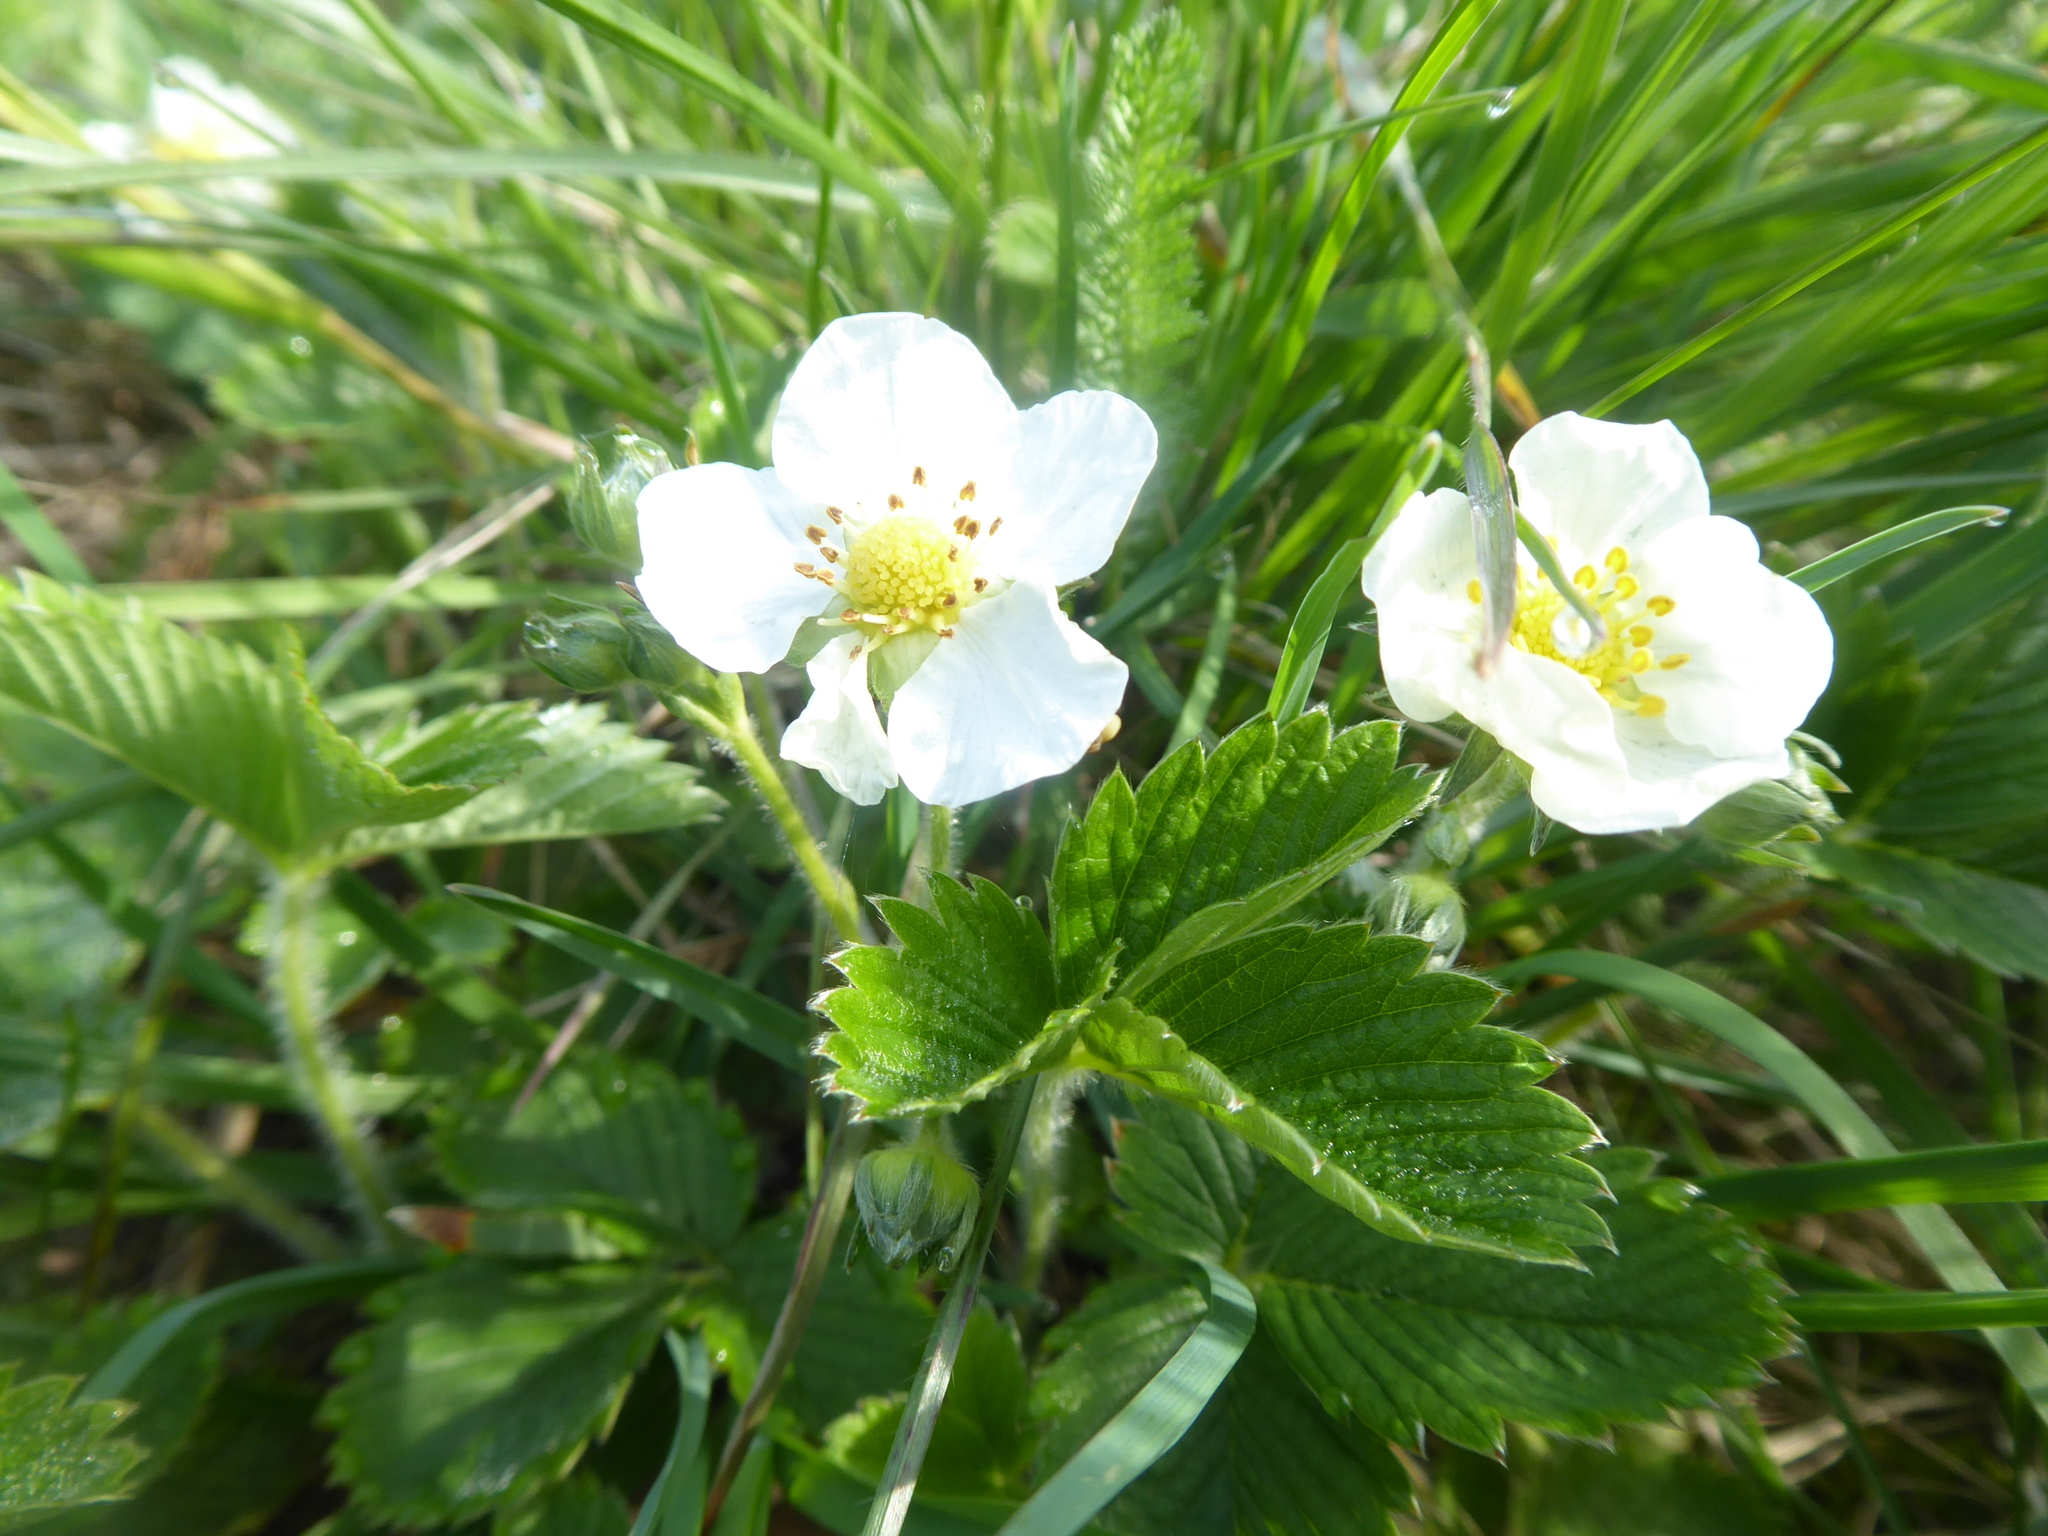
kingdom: Plantae
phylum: Tracheophyta
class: Magnoliopsida
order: Rosales
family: Rosaceae
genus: Fragaria
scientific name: Fragaria viridis
